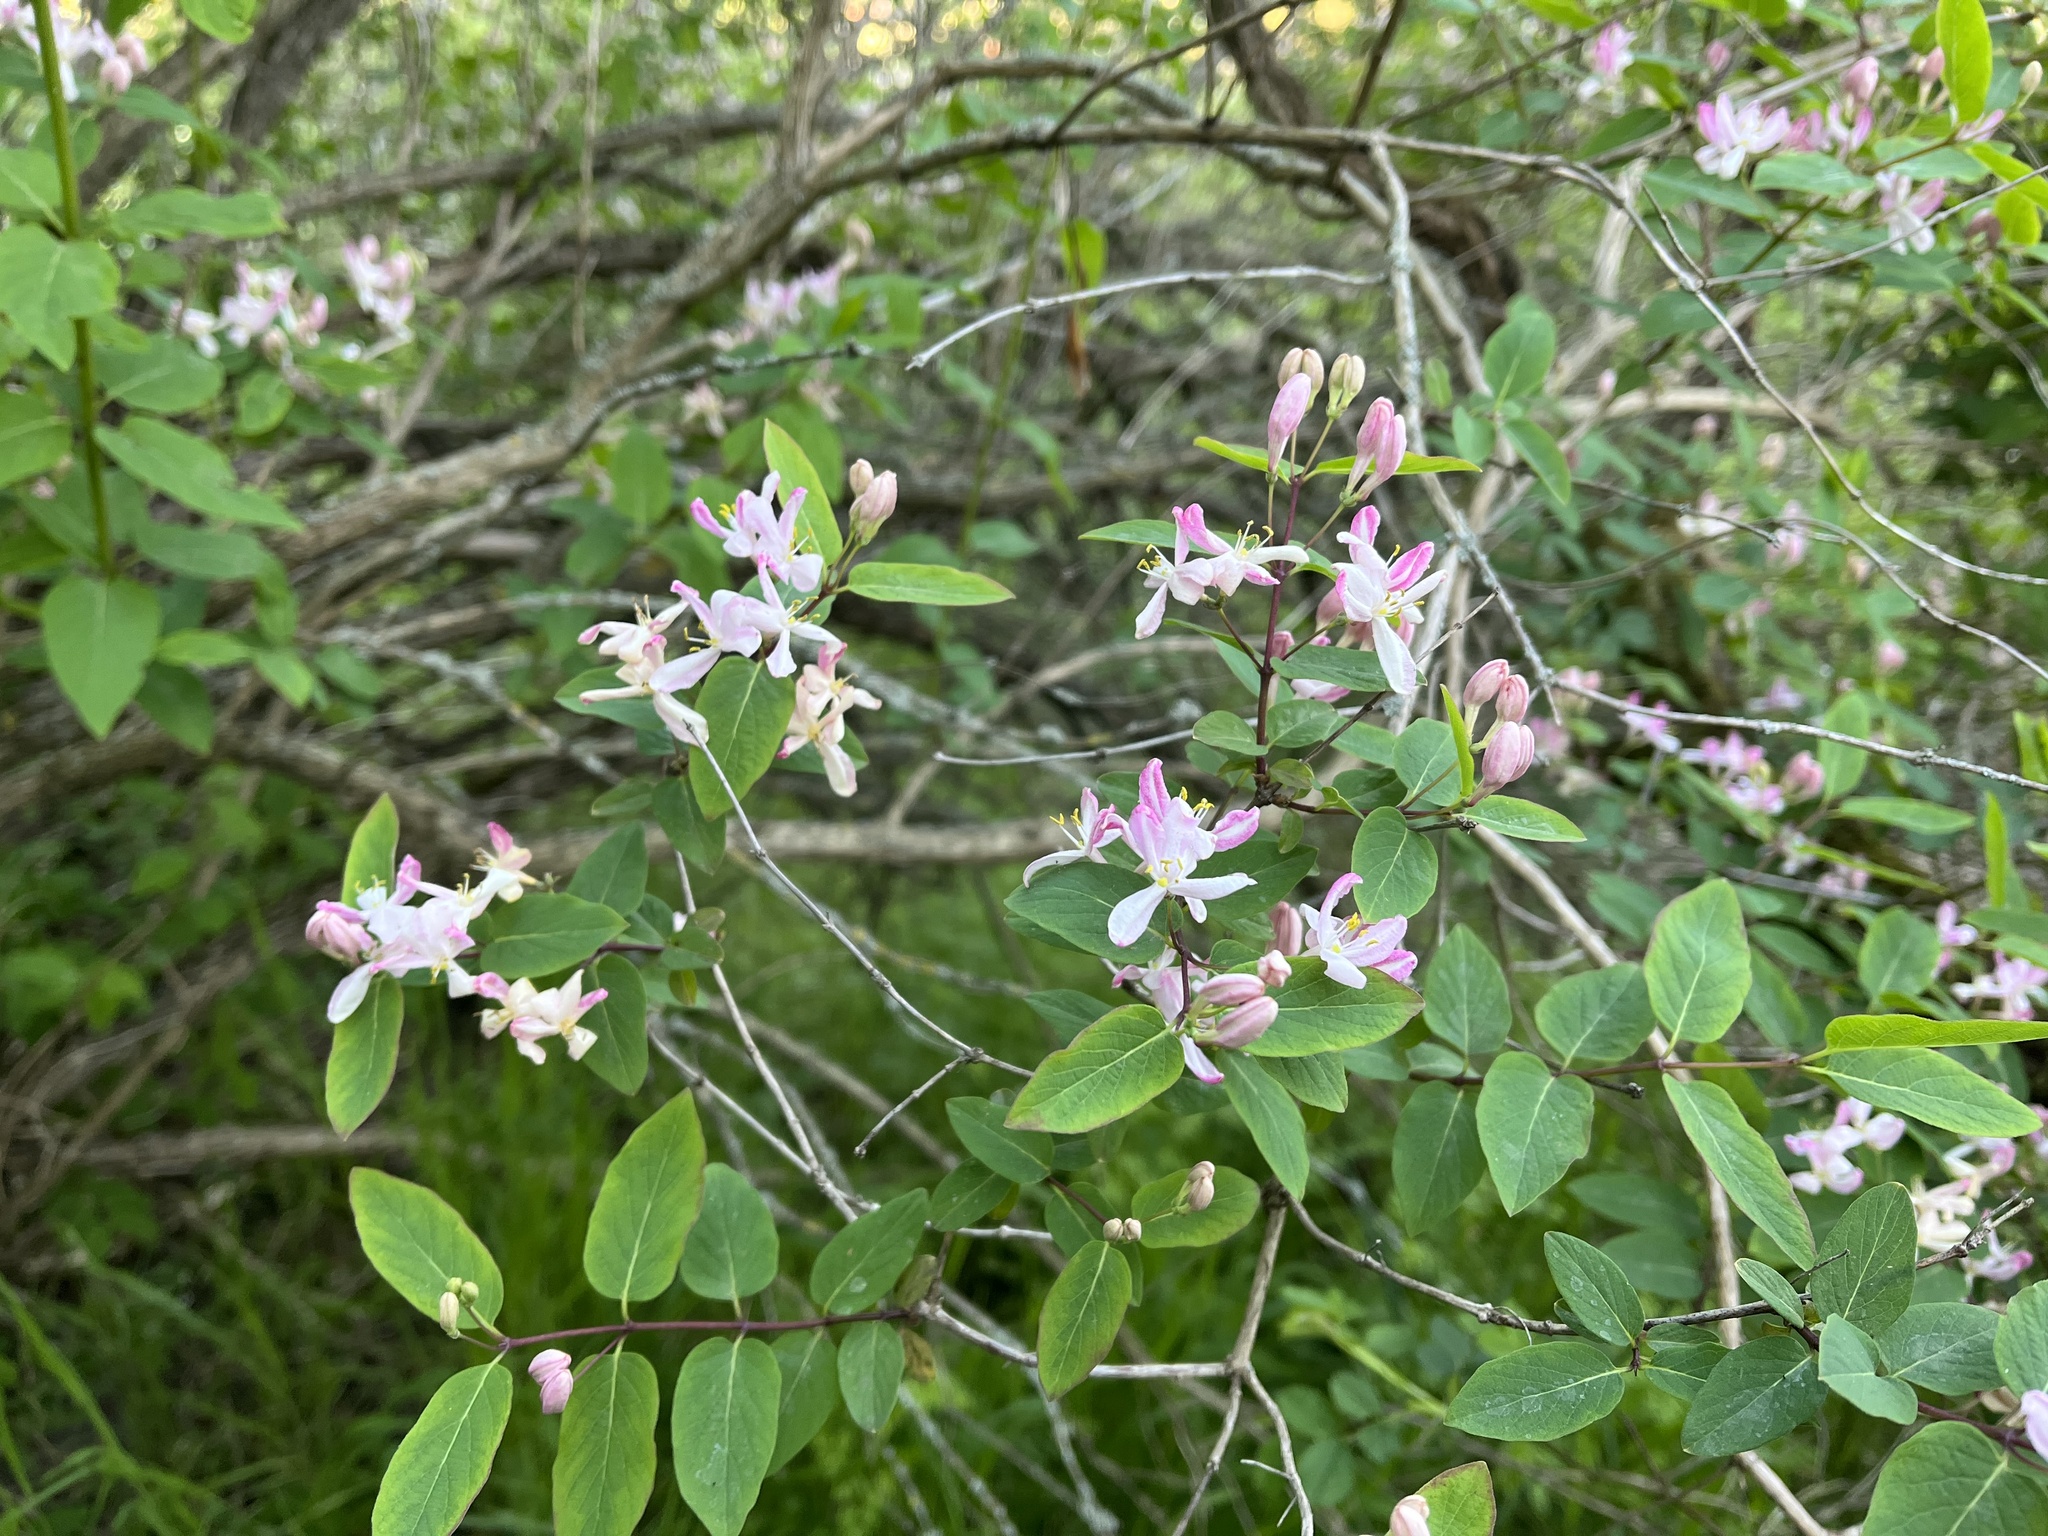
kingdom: Plantae
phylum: Tracheophyta
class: Magnoliopsida
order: Dipsacales
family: Caprifoliaceae
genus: Lonicera
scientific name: Lonicera tatarica
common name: Tatarian honeysuckle
